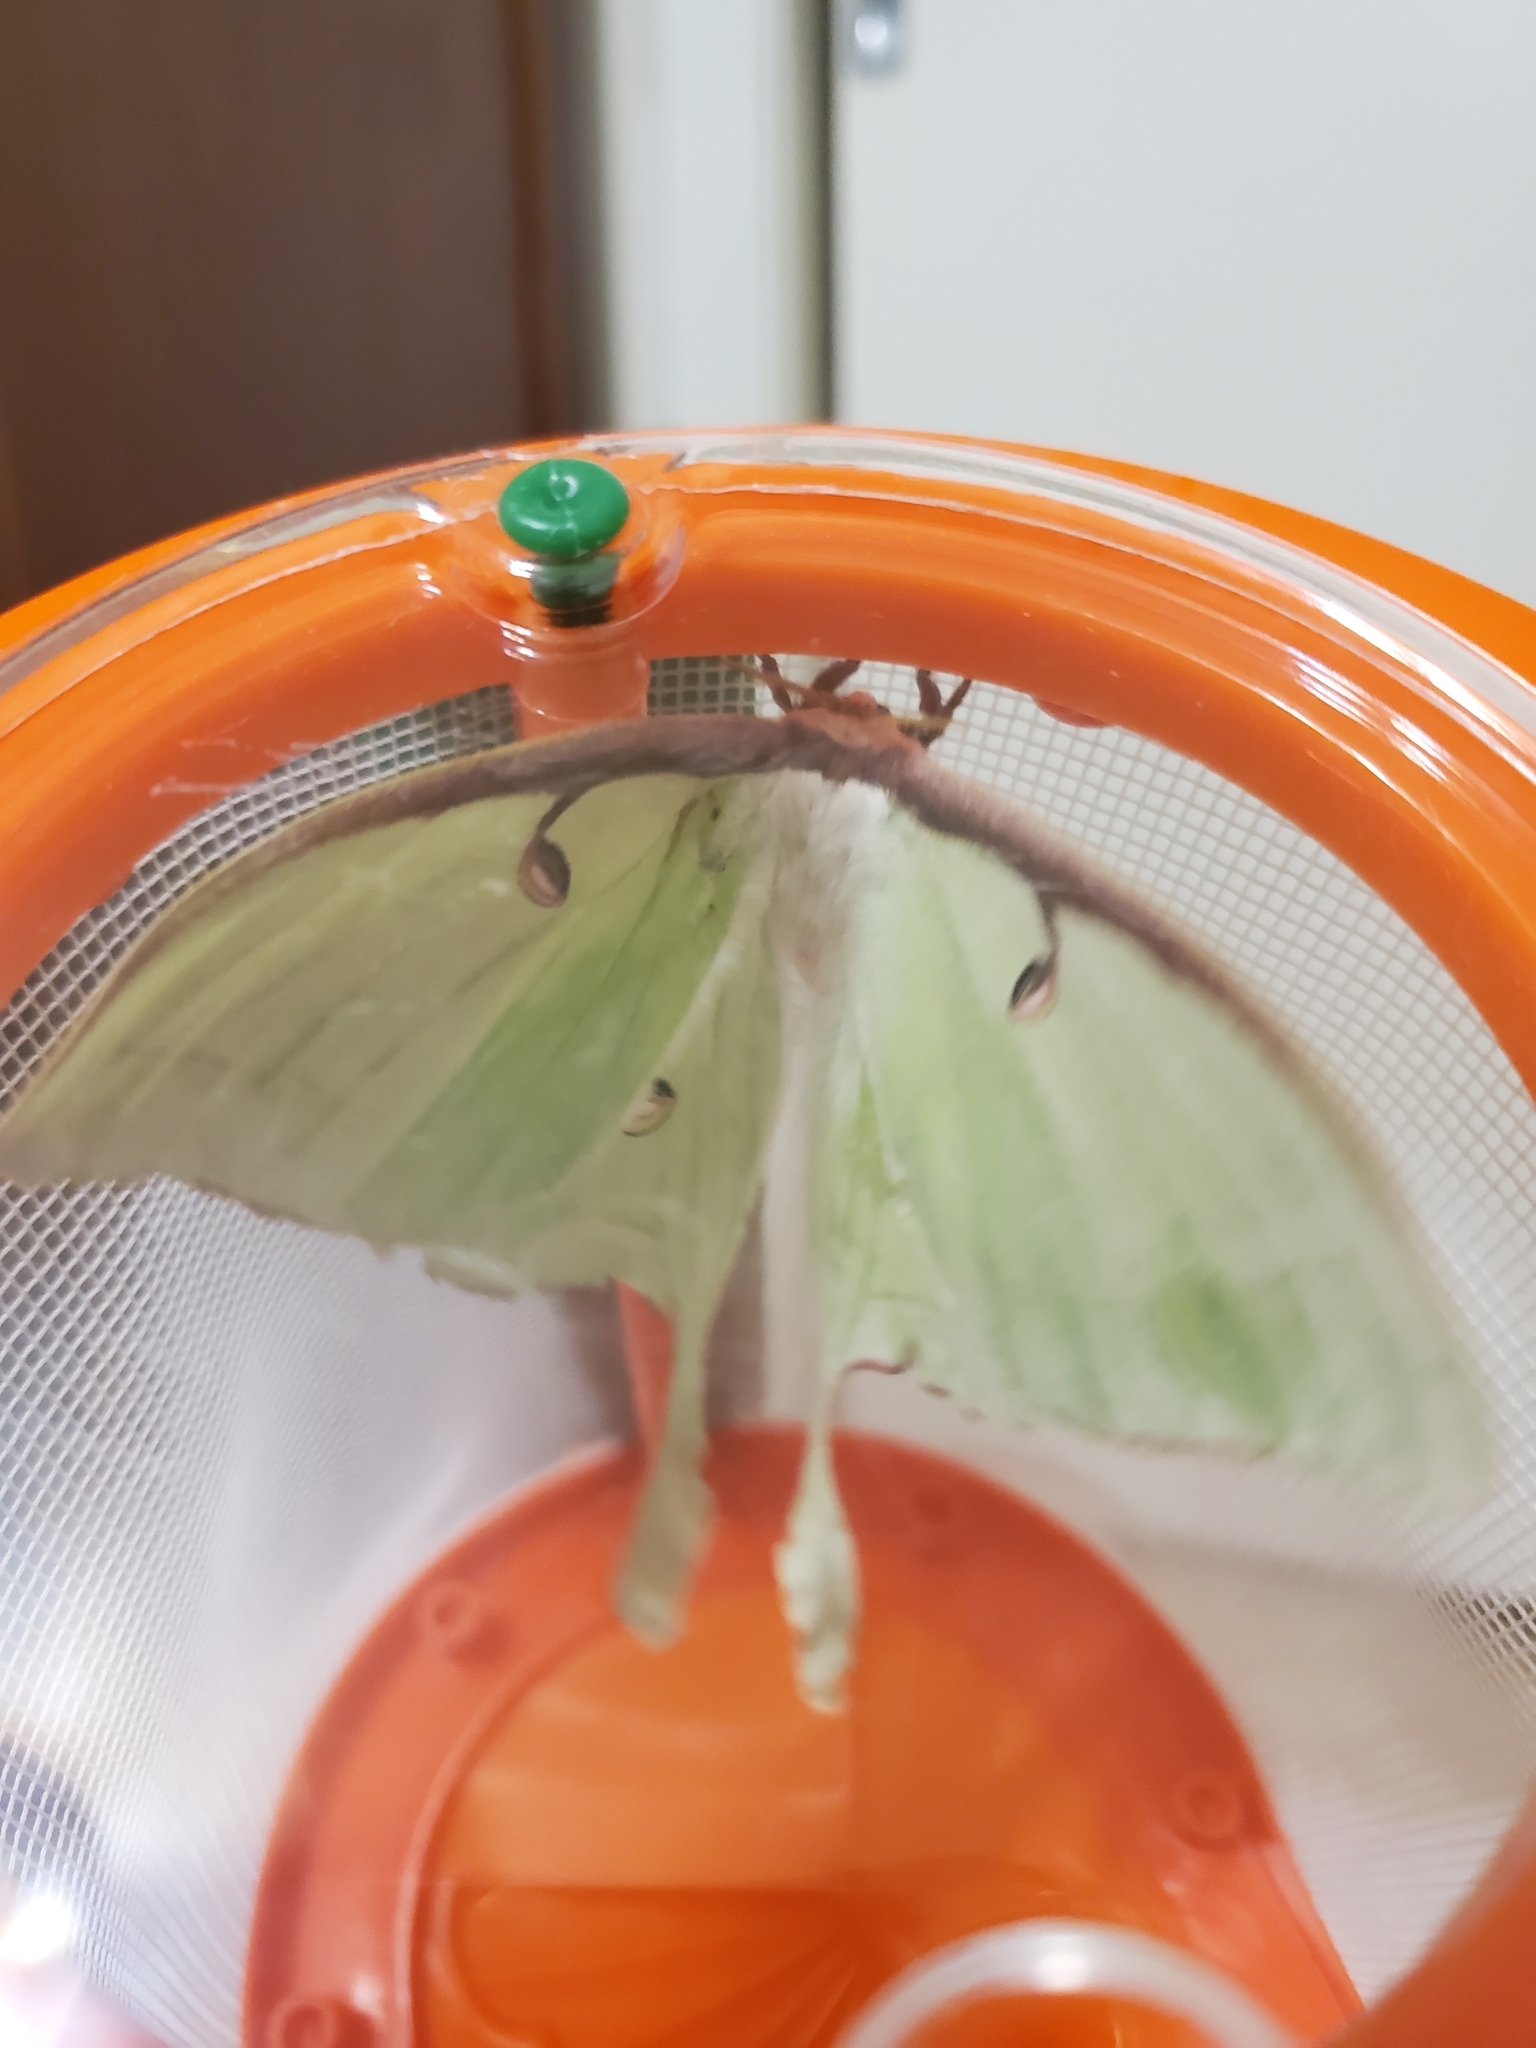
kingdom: Animalia
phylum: Arthropoda
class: Insecta
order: Lepidoptera
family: Saturniidae
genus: Actias
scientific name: Actias luna
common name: Luna moth
